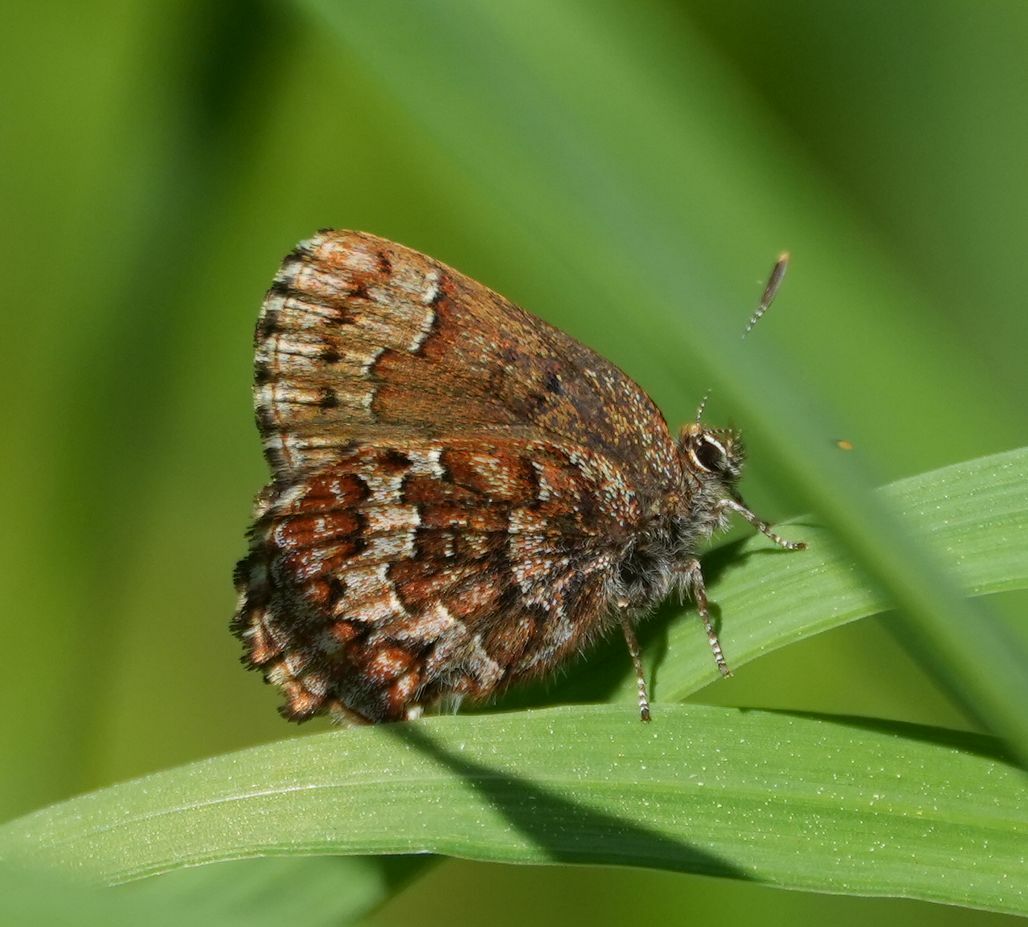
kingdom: Animalia
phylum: Arthropoda
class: Insecta
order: Lepidoptera
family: Lycaenidae
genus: Incisalia
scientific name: Incisalia niphon
